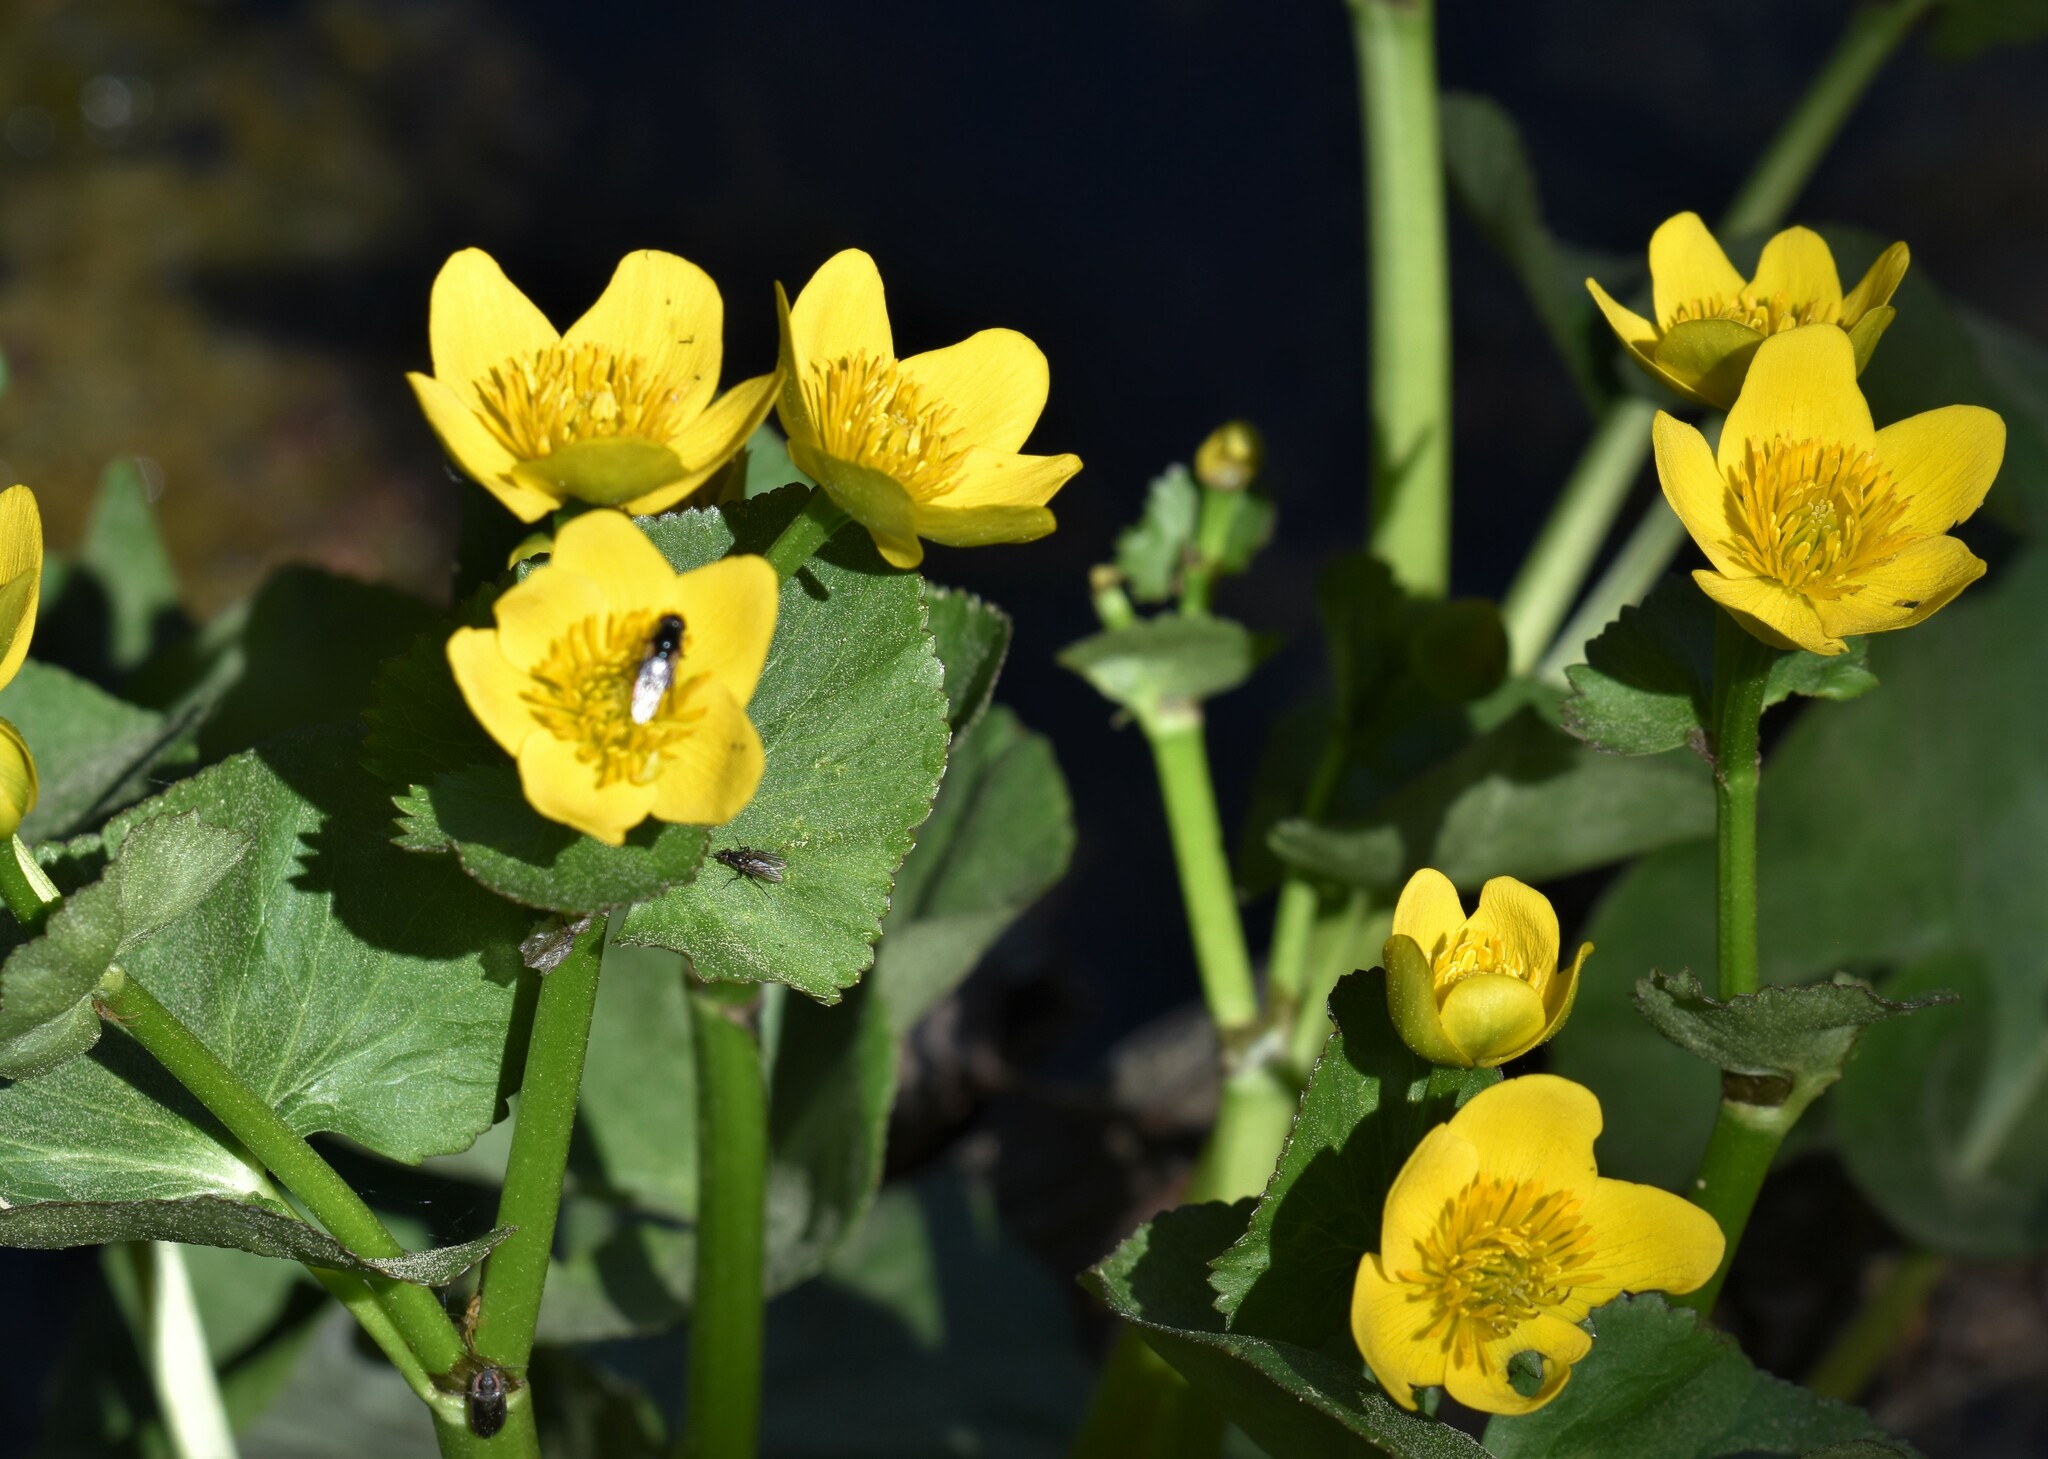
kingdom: Plantae
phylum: Tracheophyta
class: Magnoliopsida
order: Ranunculales
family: Ranunculaceae
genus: Caltha
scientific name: Caltha palustris
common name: Marsh marigold
